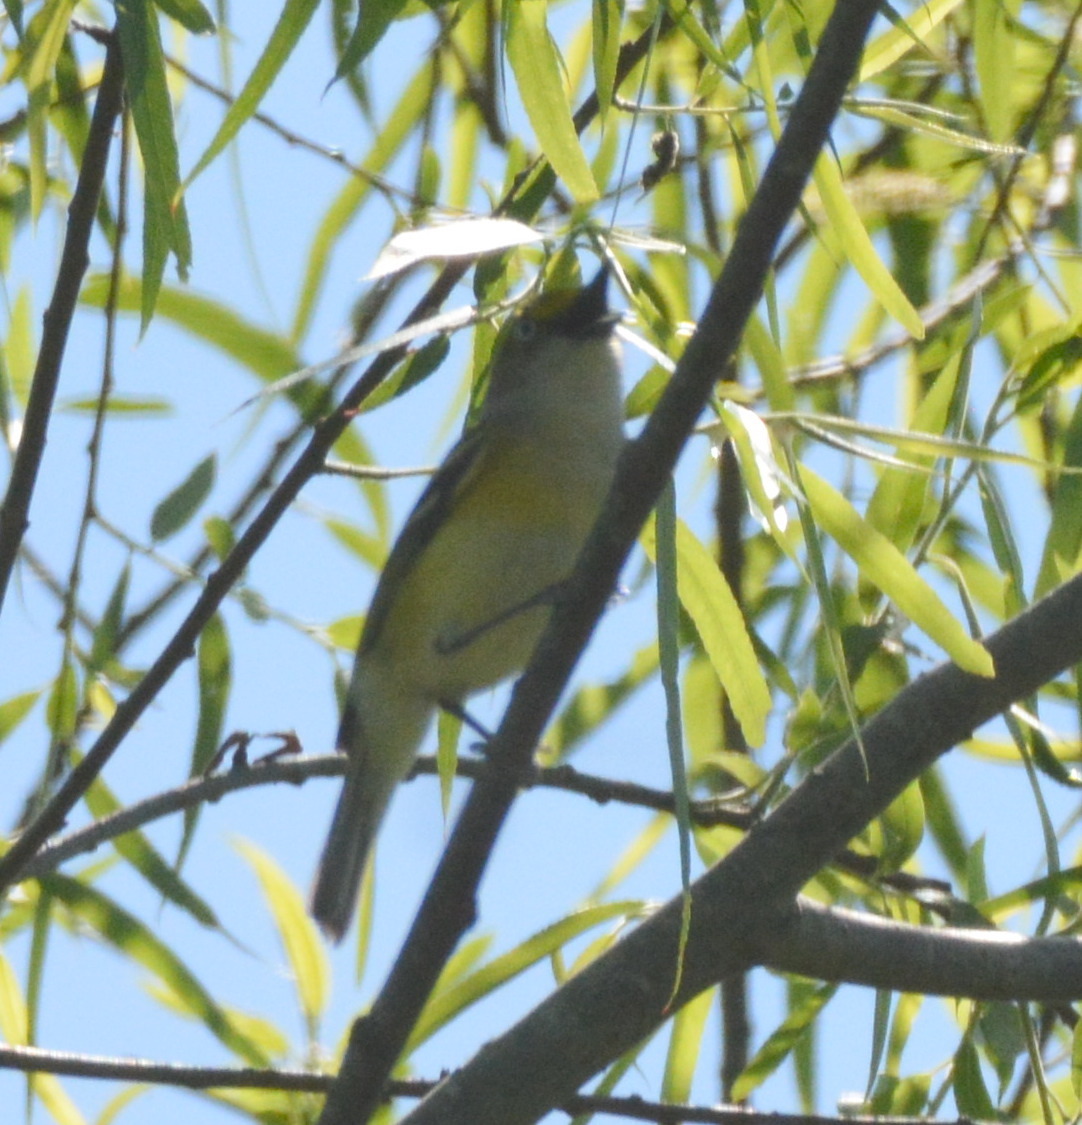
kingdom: Animalia
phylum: Chordata
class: Aves
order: Passeriformes
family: Vireonidae
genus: Vireo
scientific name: Vireo griseus
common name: White-eyed vireo
